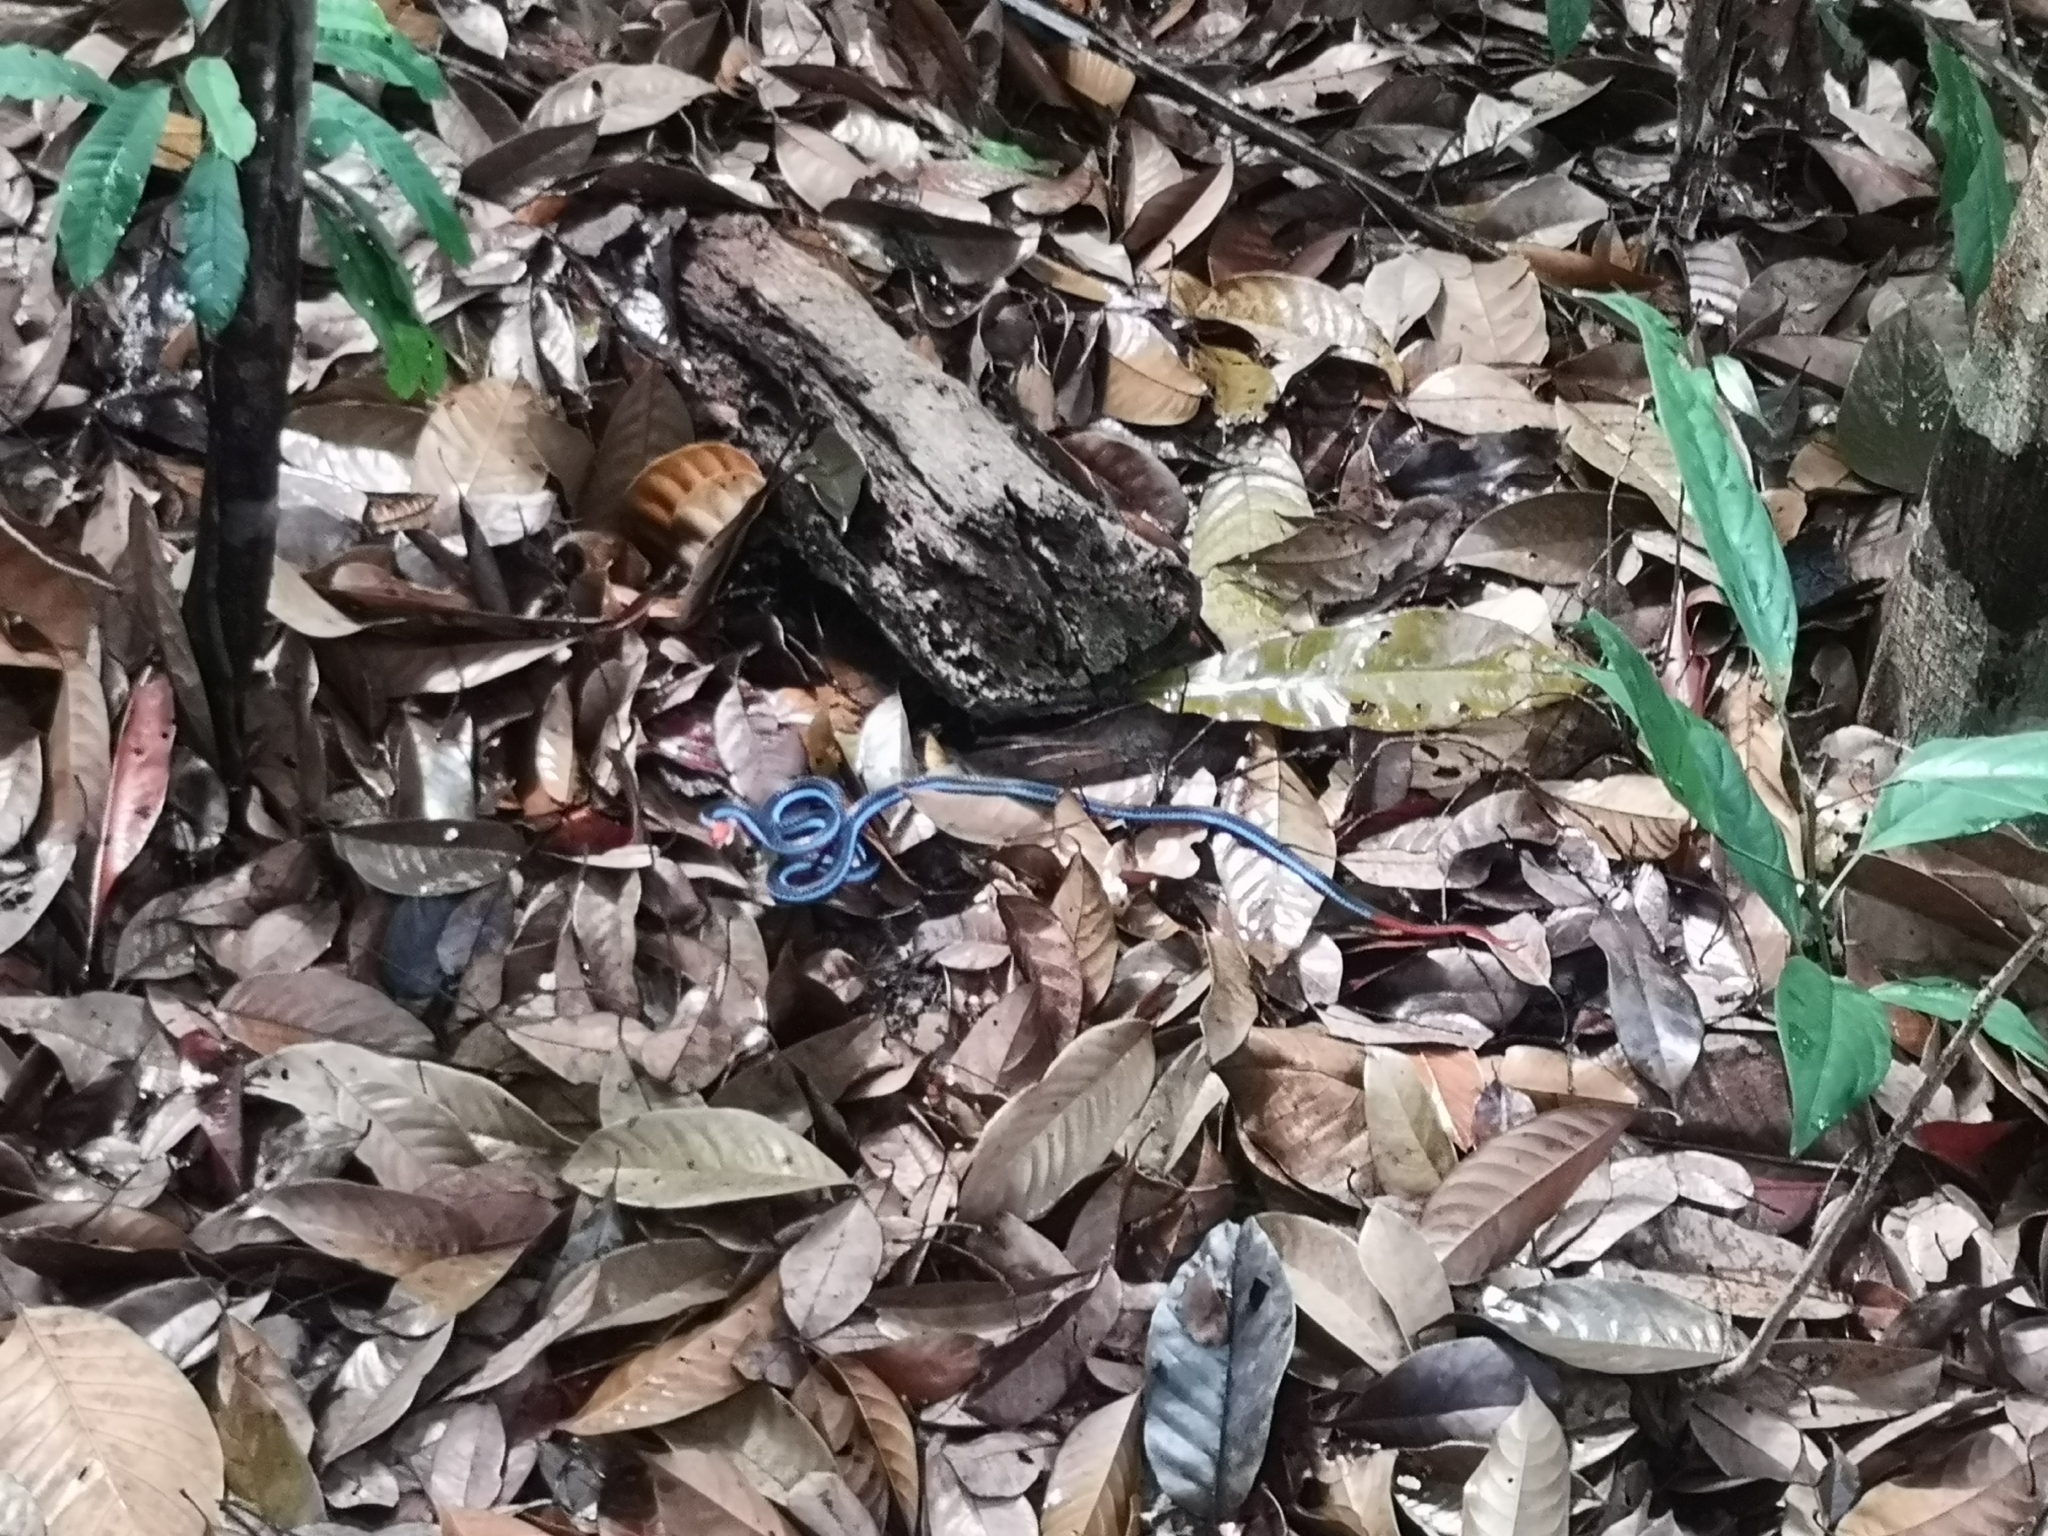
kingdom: Animalia
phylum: Chordata
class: Squamata
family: Elapidae
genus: Calliophis
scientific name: Calliophis bivirgatus
